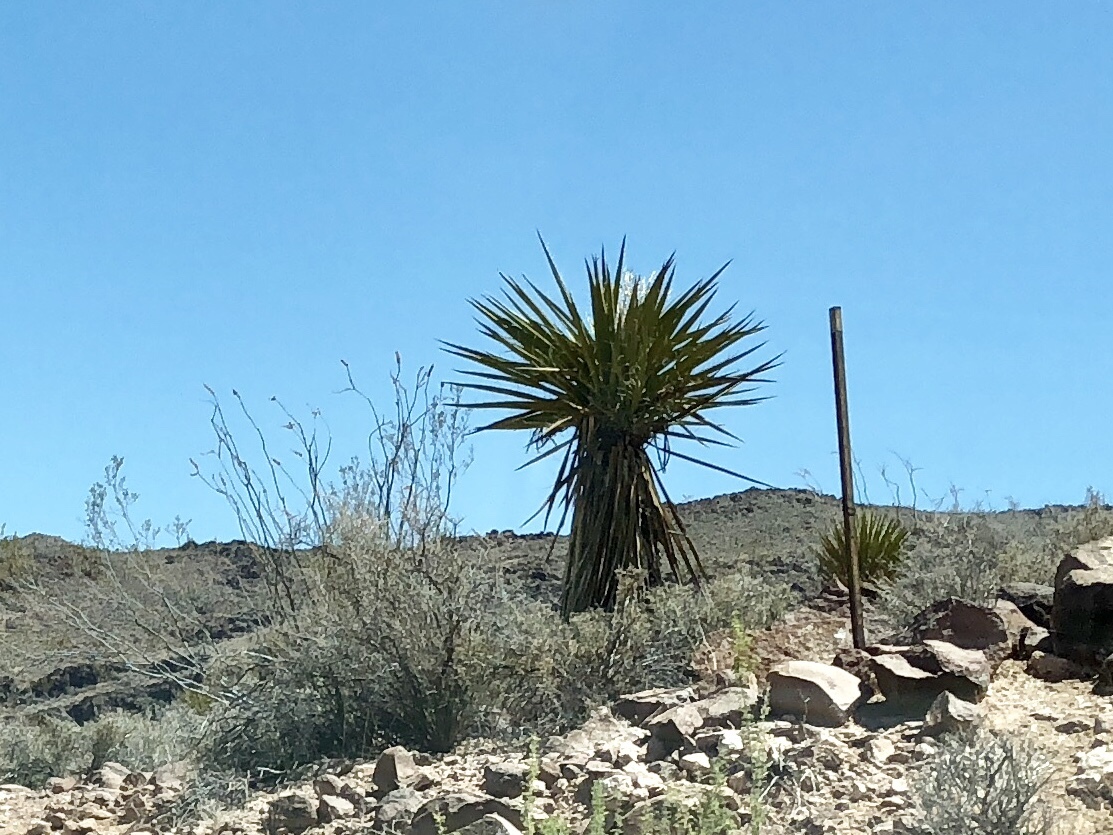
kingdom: Plantae
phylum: Tracheophyta
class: Liliopsida
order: Asparagales
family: Asparagaceae
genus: Yucca
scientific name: Yucca schidigera
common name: Mojave yucca
